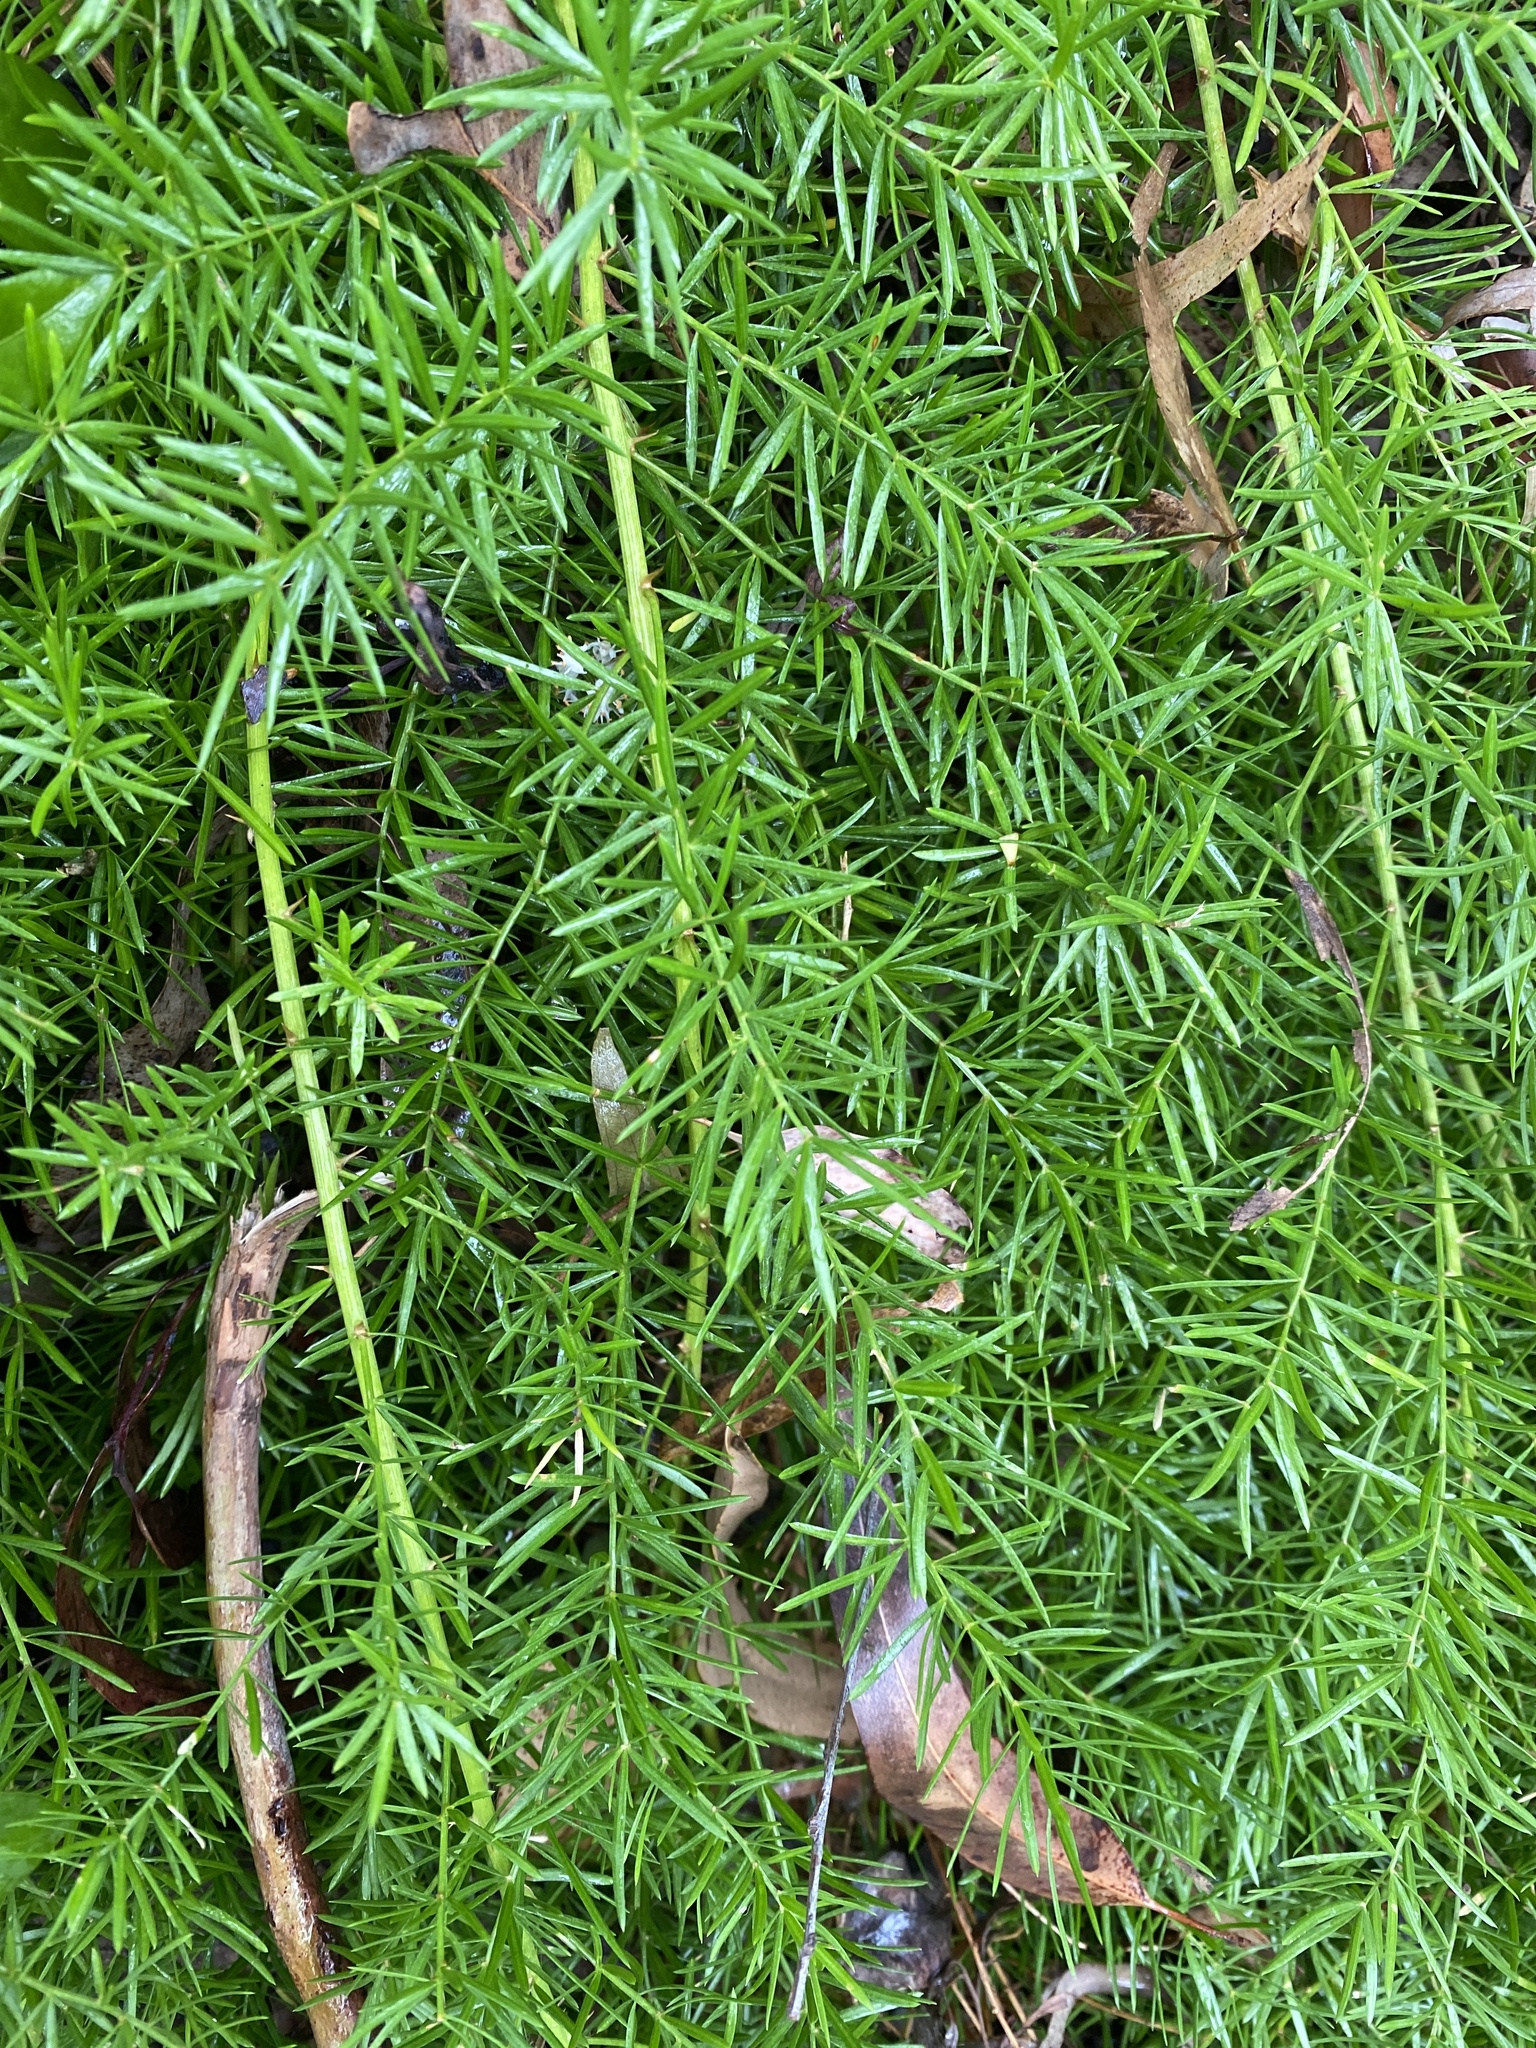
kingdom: Plantae
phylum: Tracheophyta
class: Liliopsida
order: Asparagales
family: Asparagaceae
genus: Asparagus
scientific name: Asparagus aethiopicus
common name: Sprenger's asparagus fern
